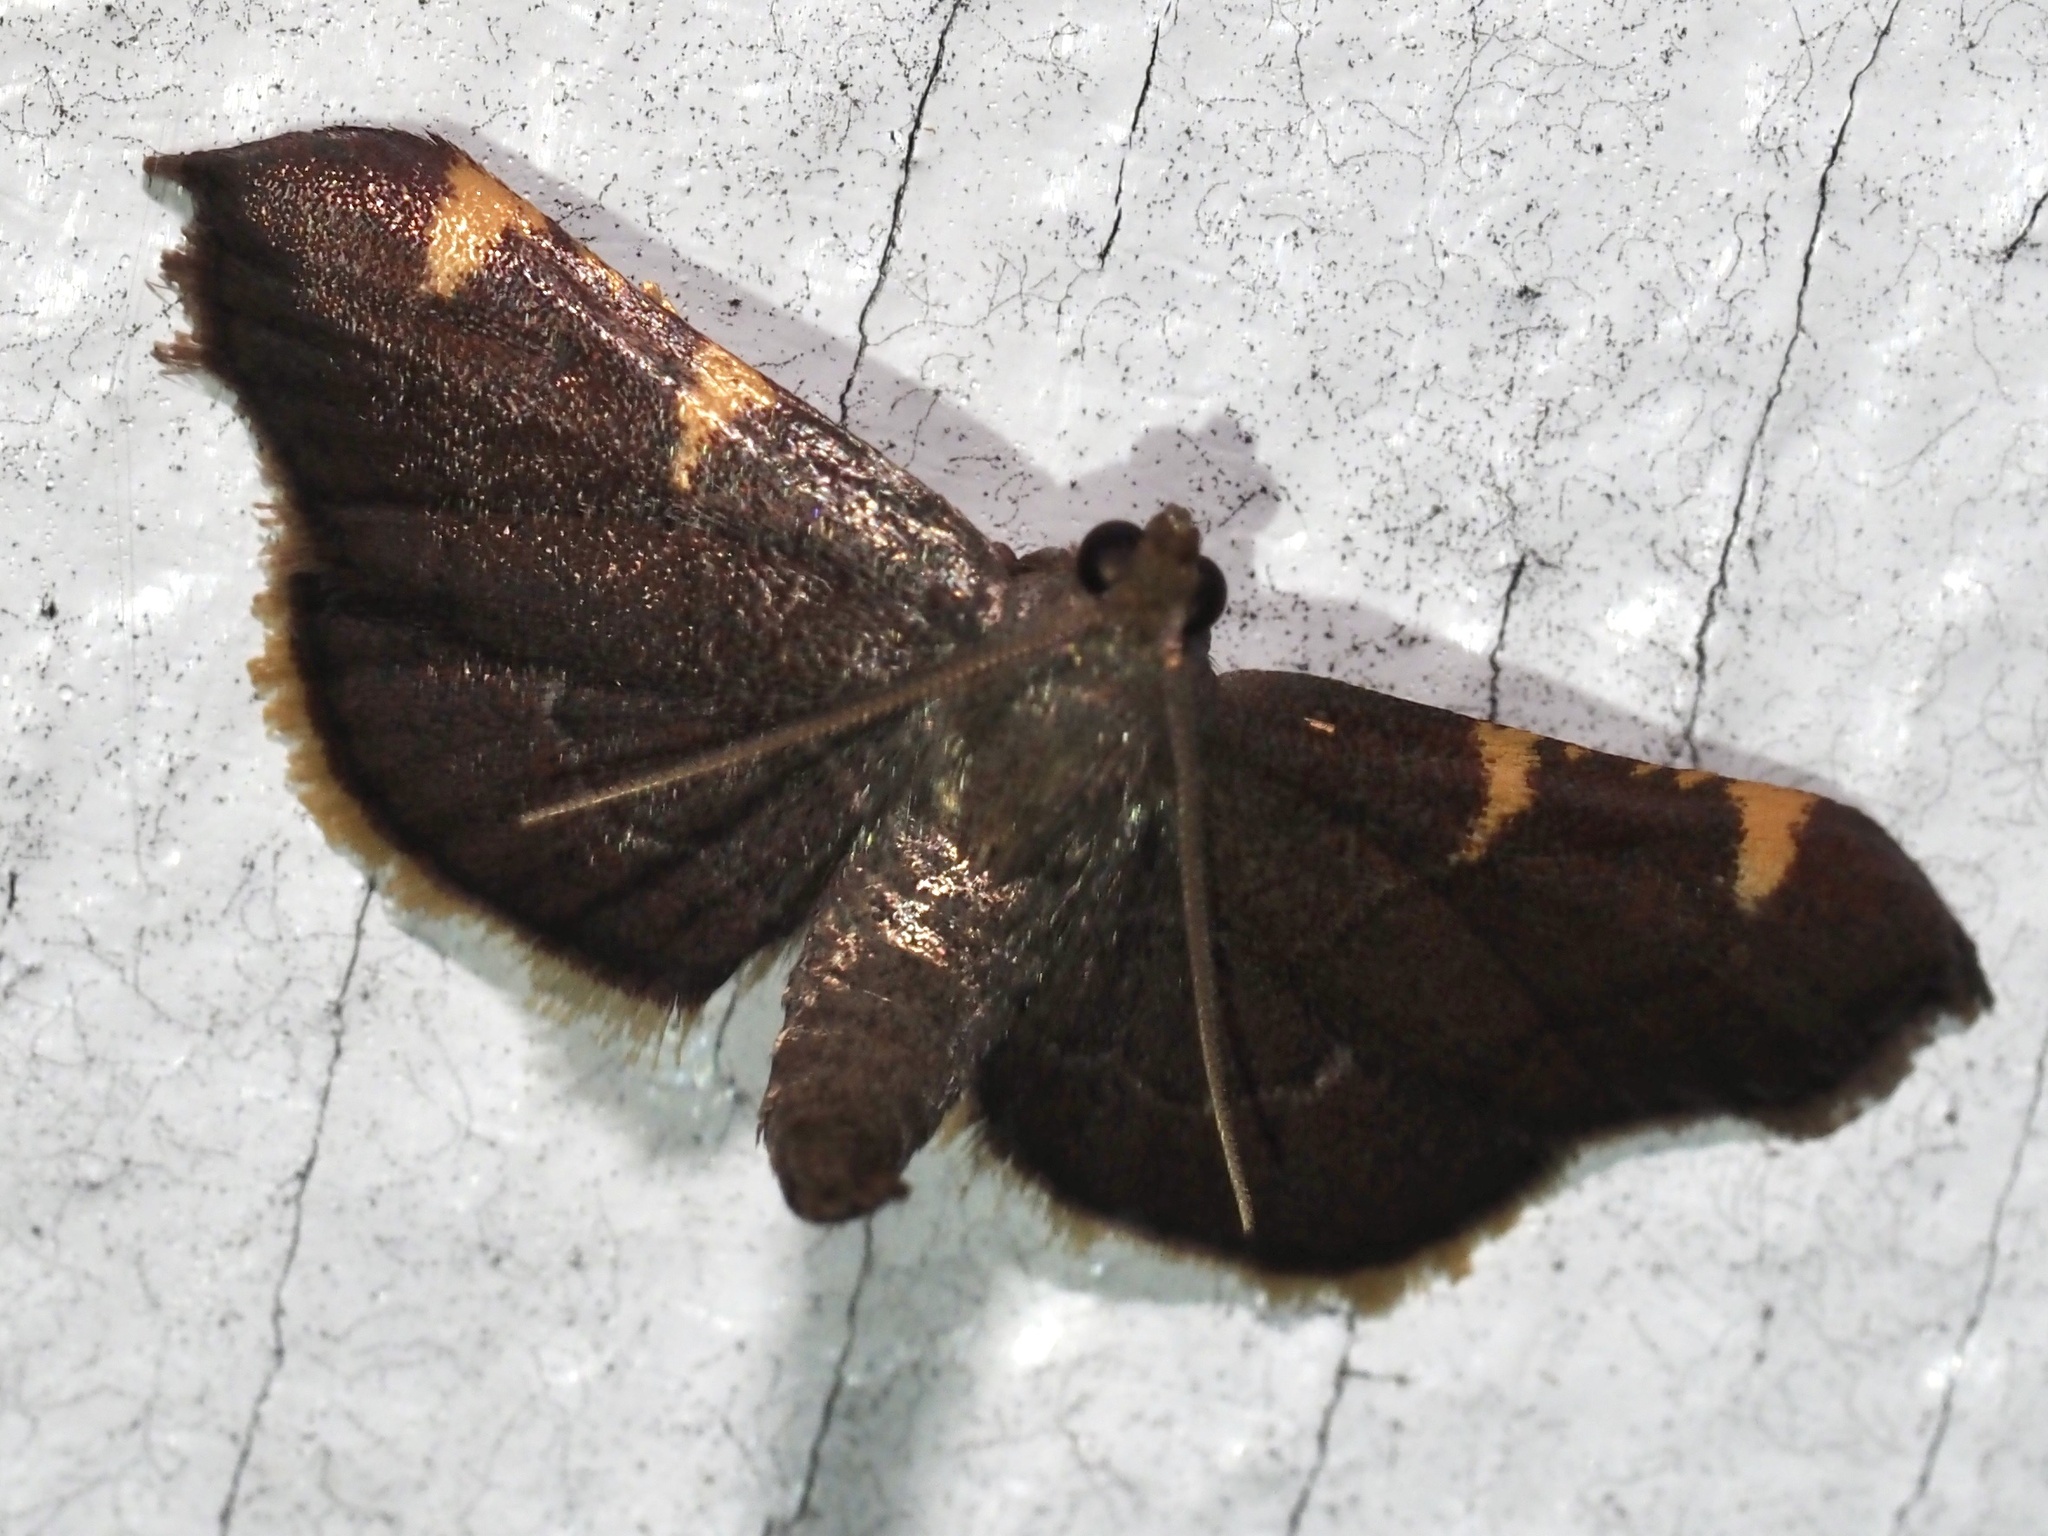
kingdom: Animalia
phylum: Arthropoda
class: Insecta
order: Lepidoptera
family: Pyralidae
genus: Hypsopygia
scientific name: Hypsopygia olinalis
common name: Yellow-fringed dolichomia moth
